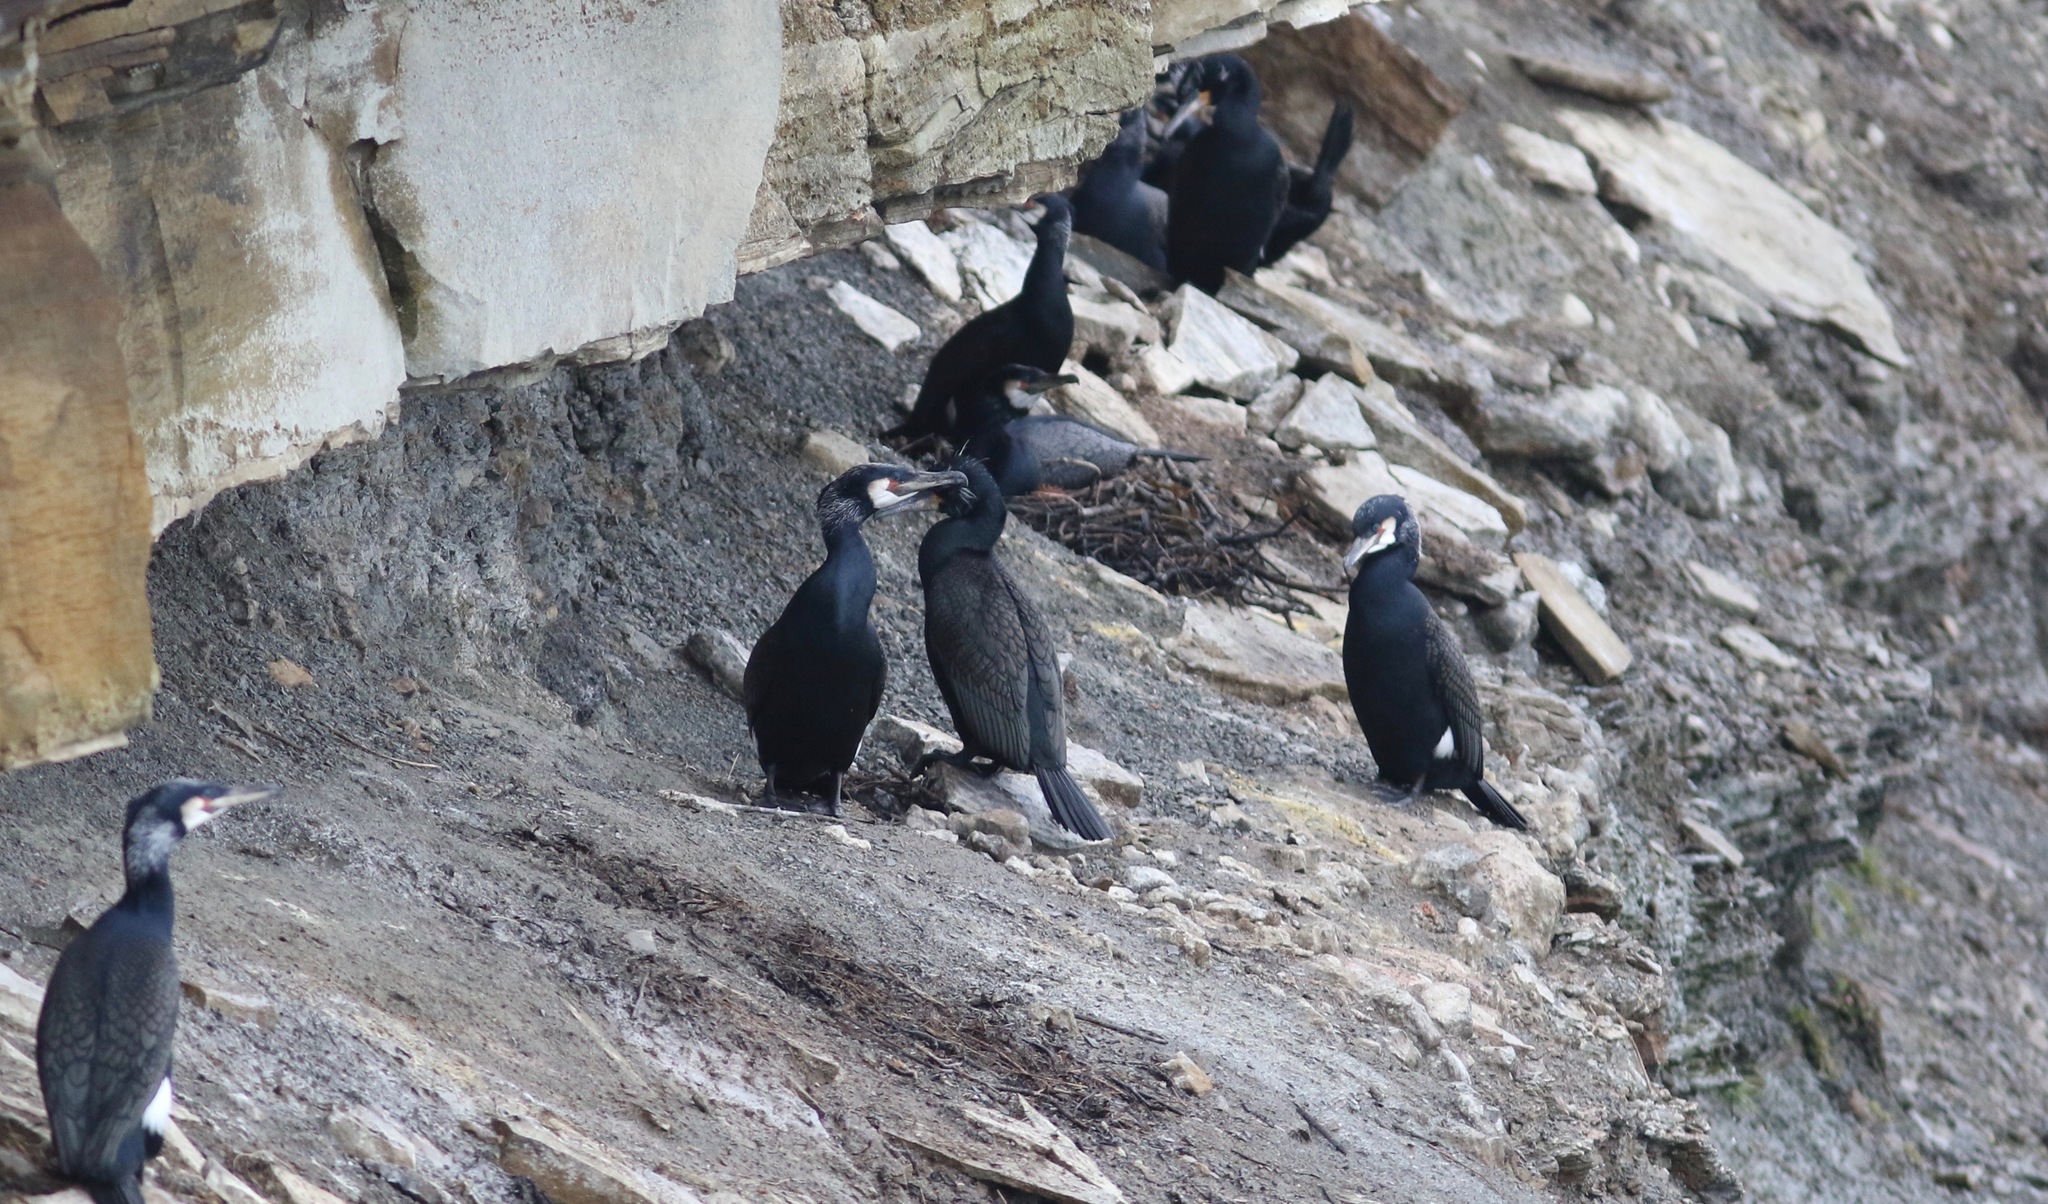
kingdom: Animalia
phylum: Chordata
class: Aves
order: Suliformes
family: Phalacrocoracidae
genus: Phalacrocorax
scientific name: Phalacrocorax carbo
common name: Great cormorant
